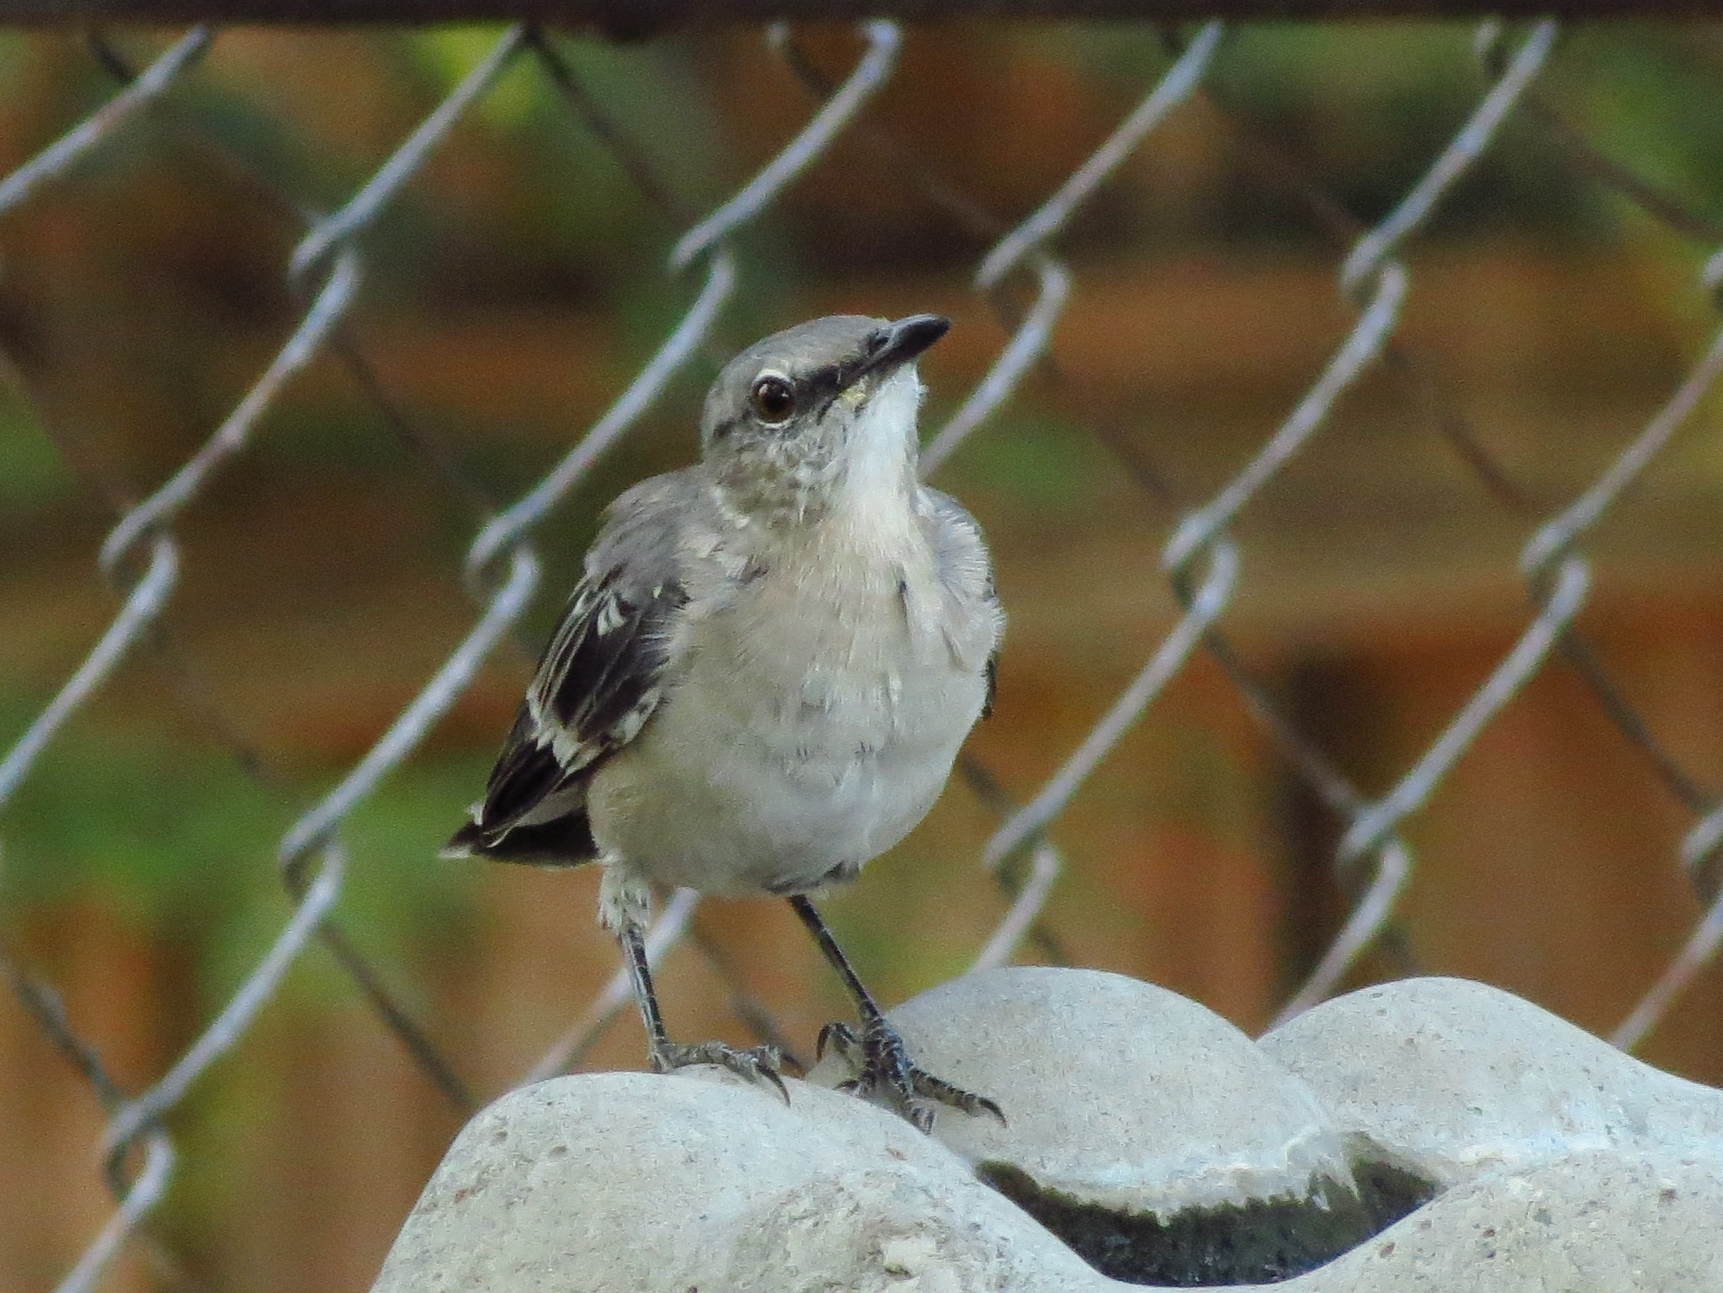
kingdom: Animalia
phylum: Chordata
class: Aves
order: Passeriformes
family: Mimidae
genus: Mimus
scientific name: Mimus polyglottos
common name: Northern mockingbird
